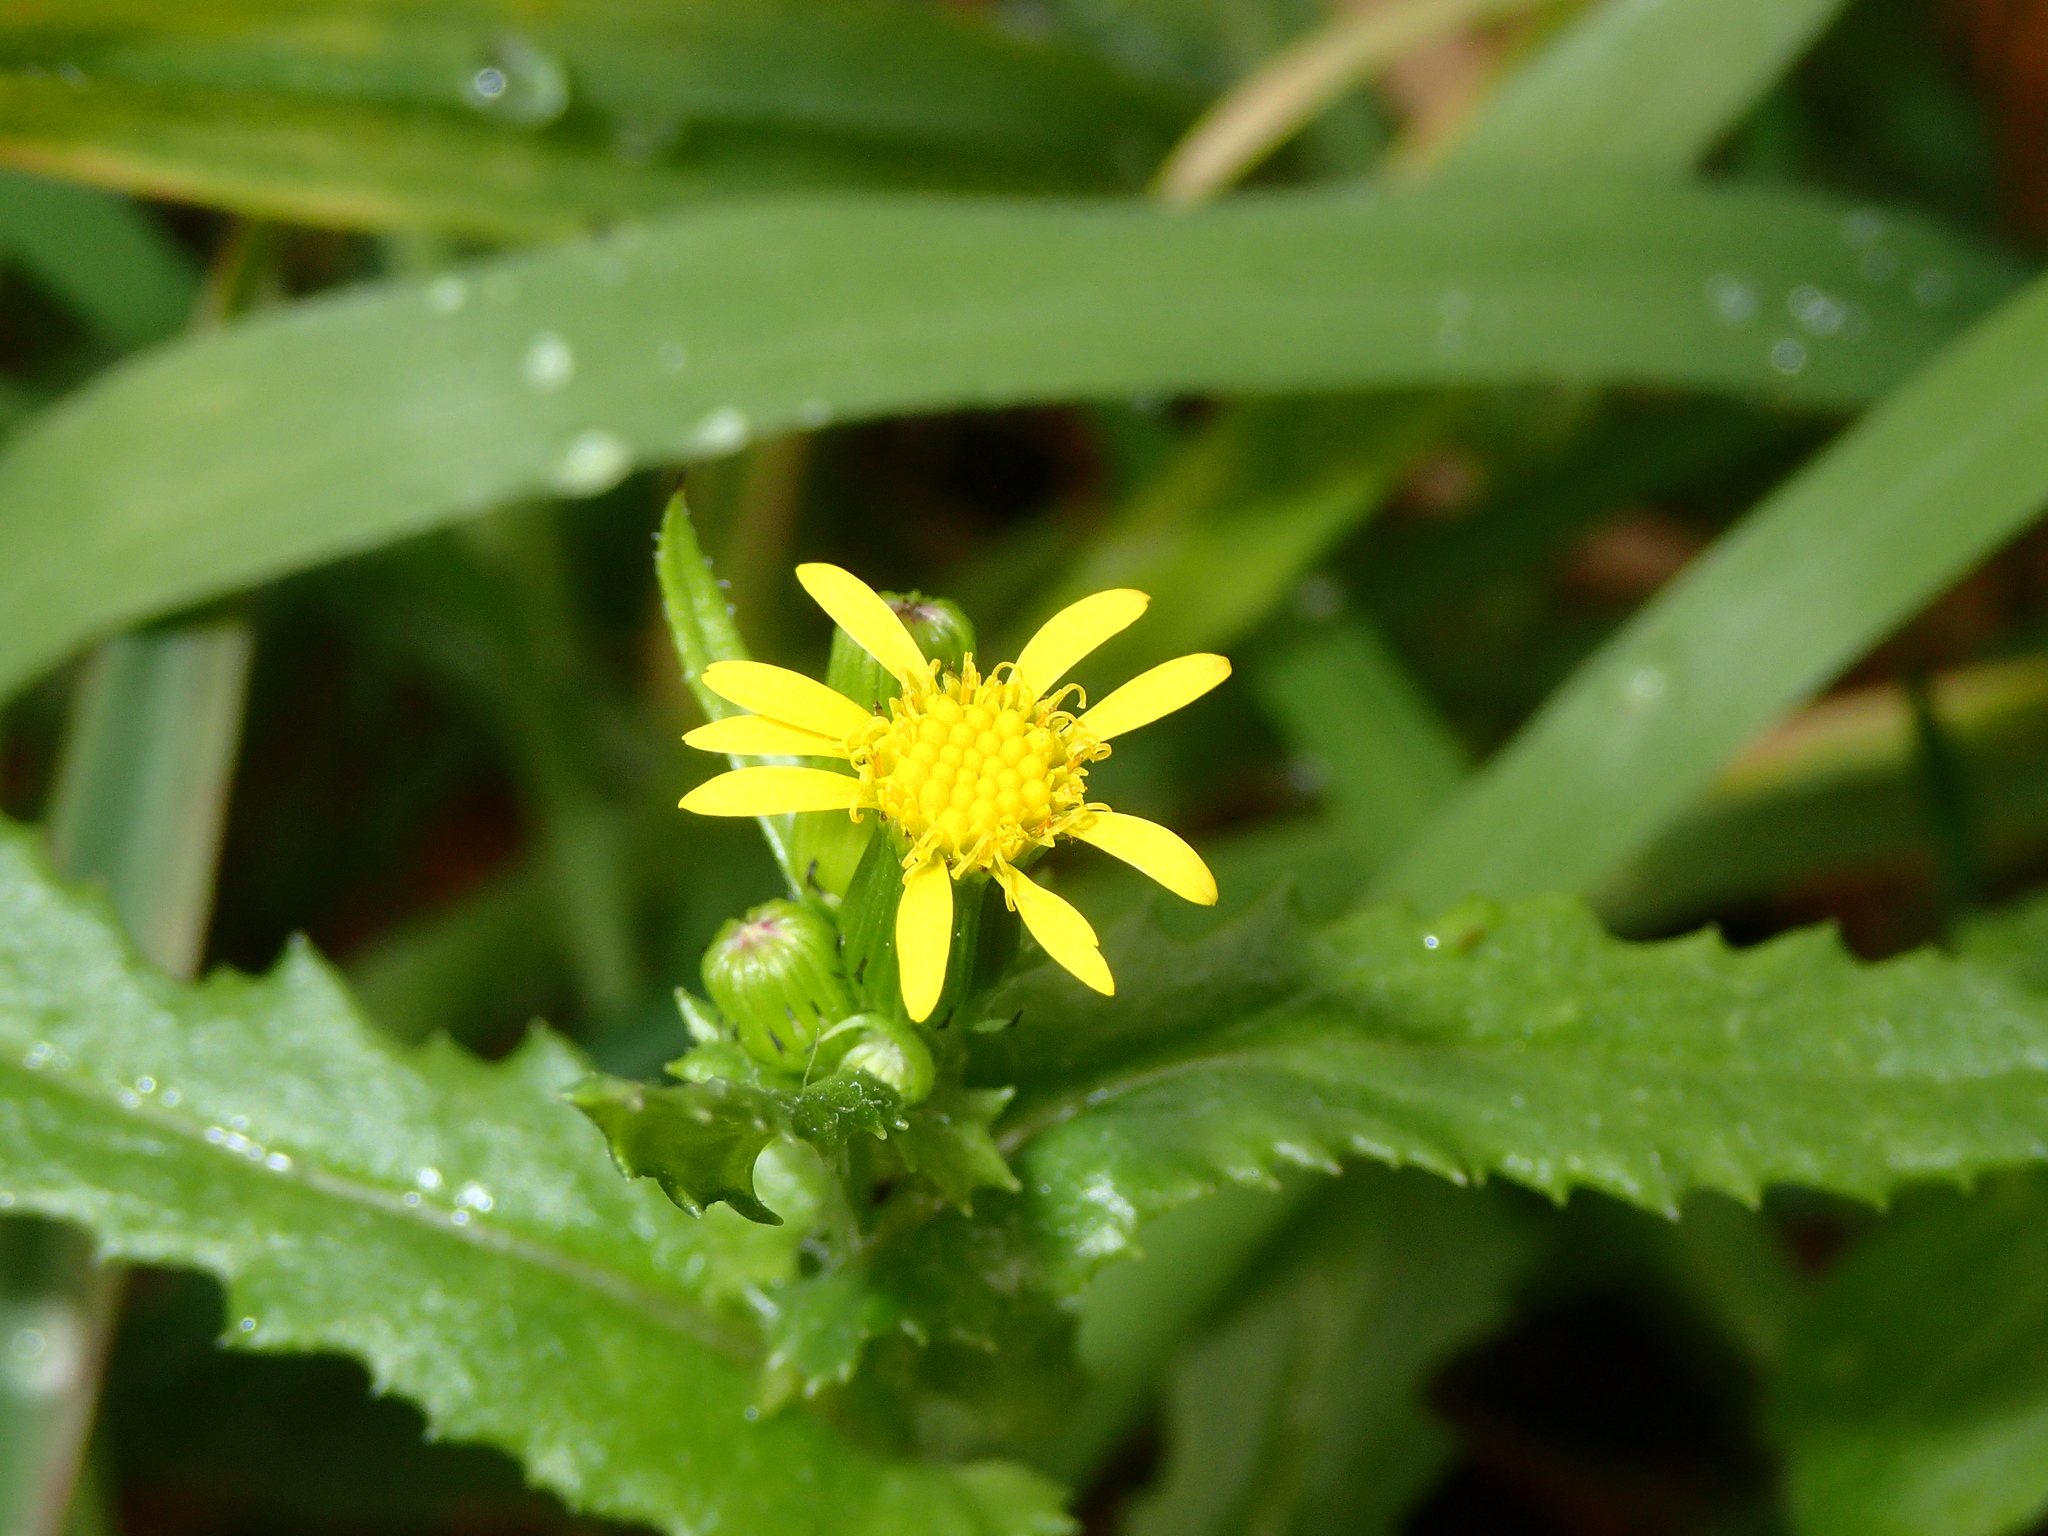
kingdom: Plantae
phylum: Tracheophyta
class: Magnoliopsida
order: Asterales
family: Asteraceae
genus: Senecio
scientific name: Senecio lividus
